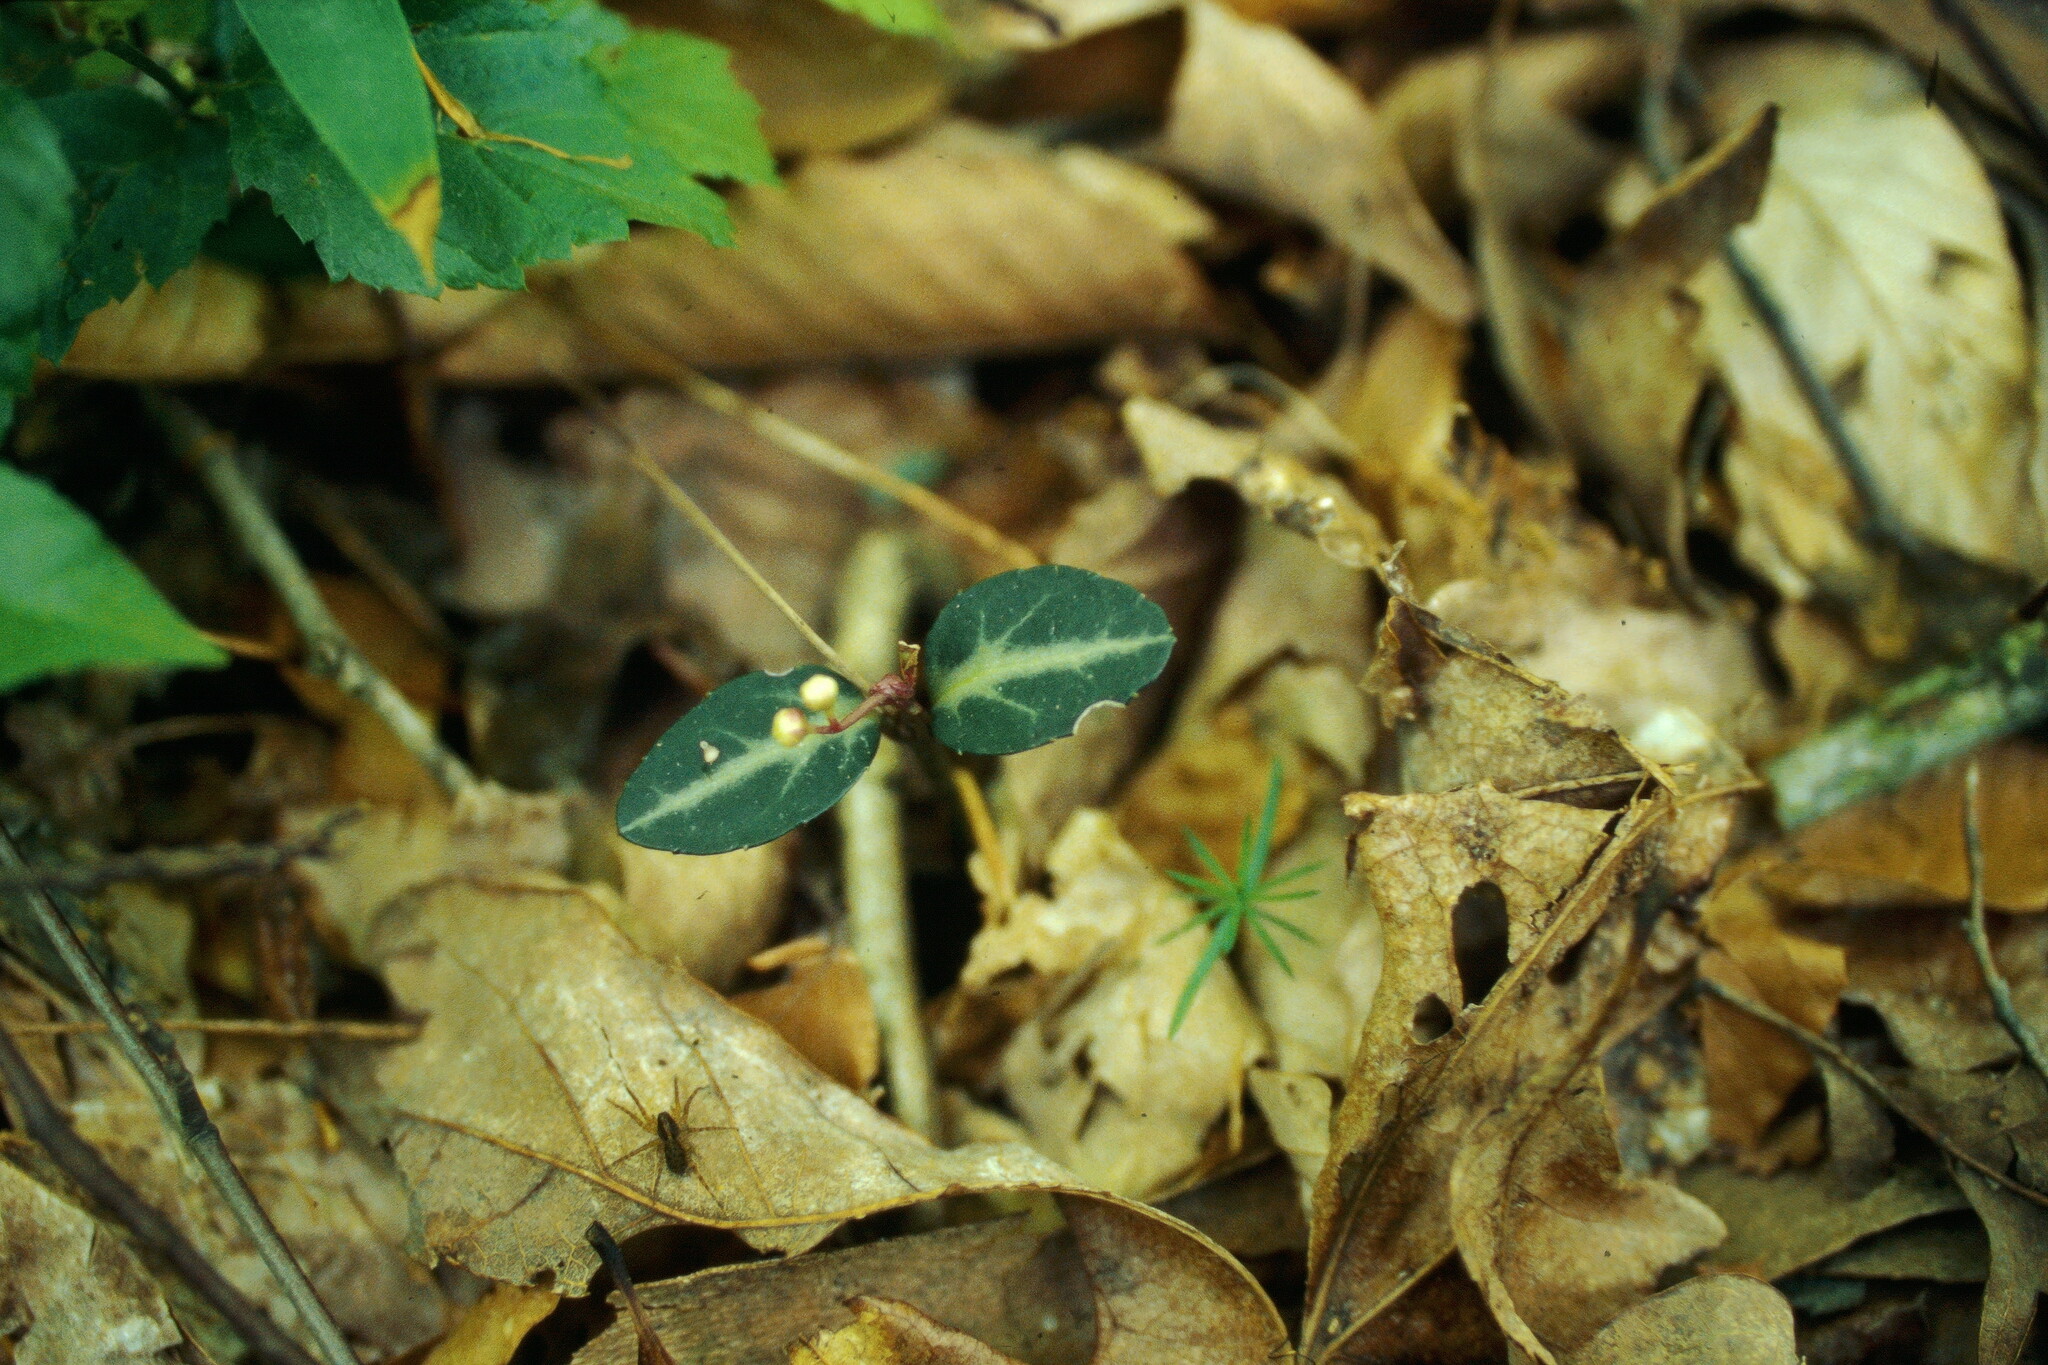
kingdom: Plantae
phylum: Tracheophyta
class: Magnoliopsida
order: Ericales
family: Ericaceae
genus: Chimaphila
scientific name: Chimaphila maculata
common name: Spotted pipsissewa
